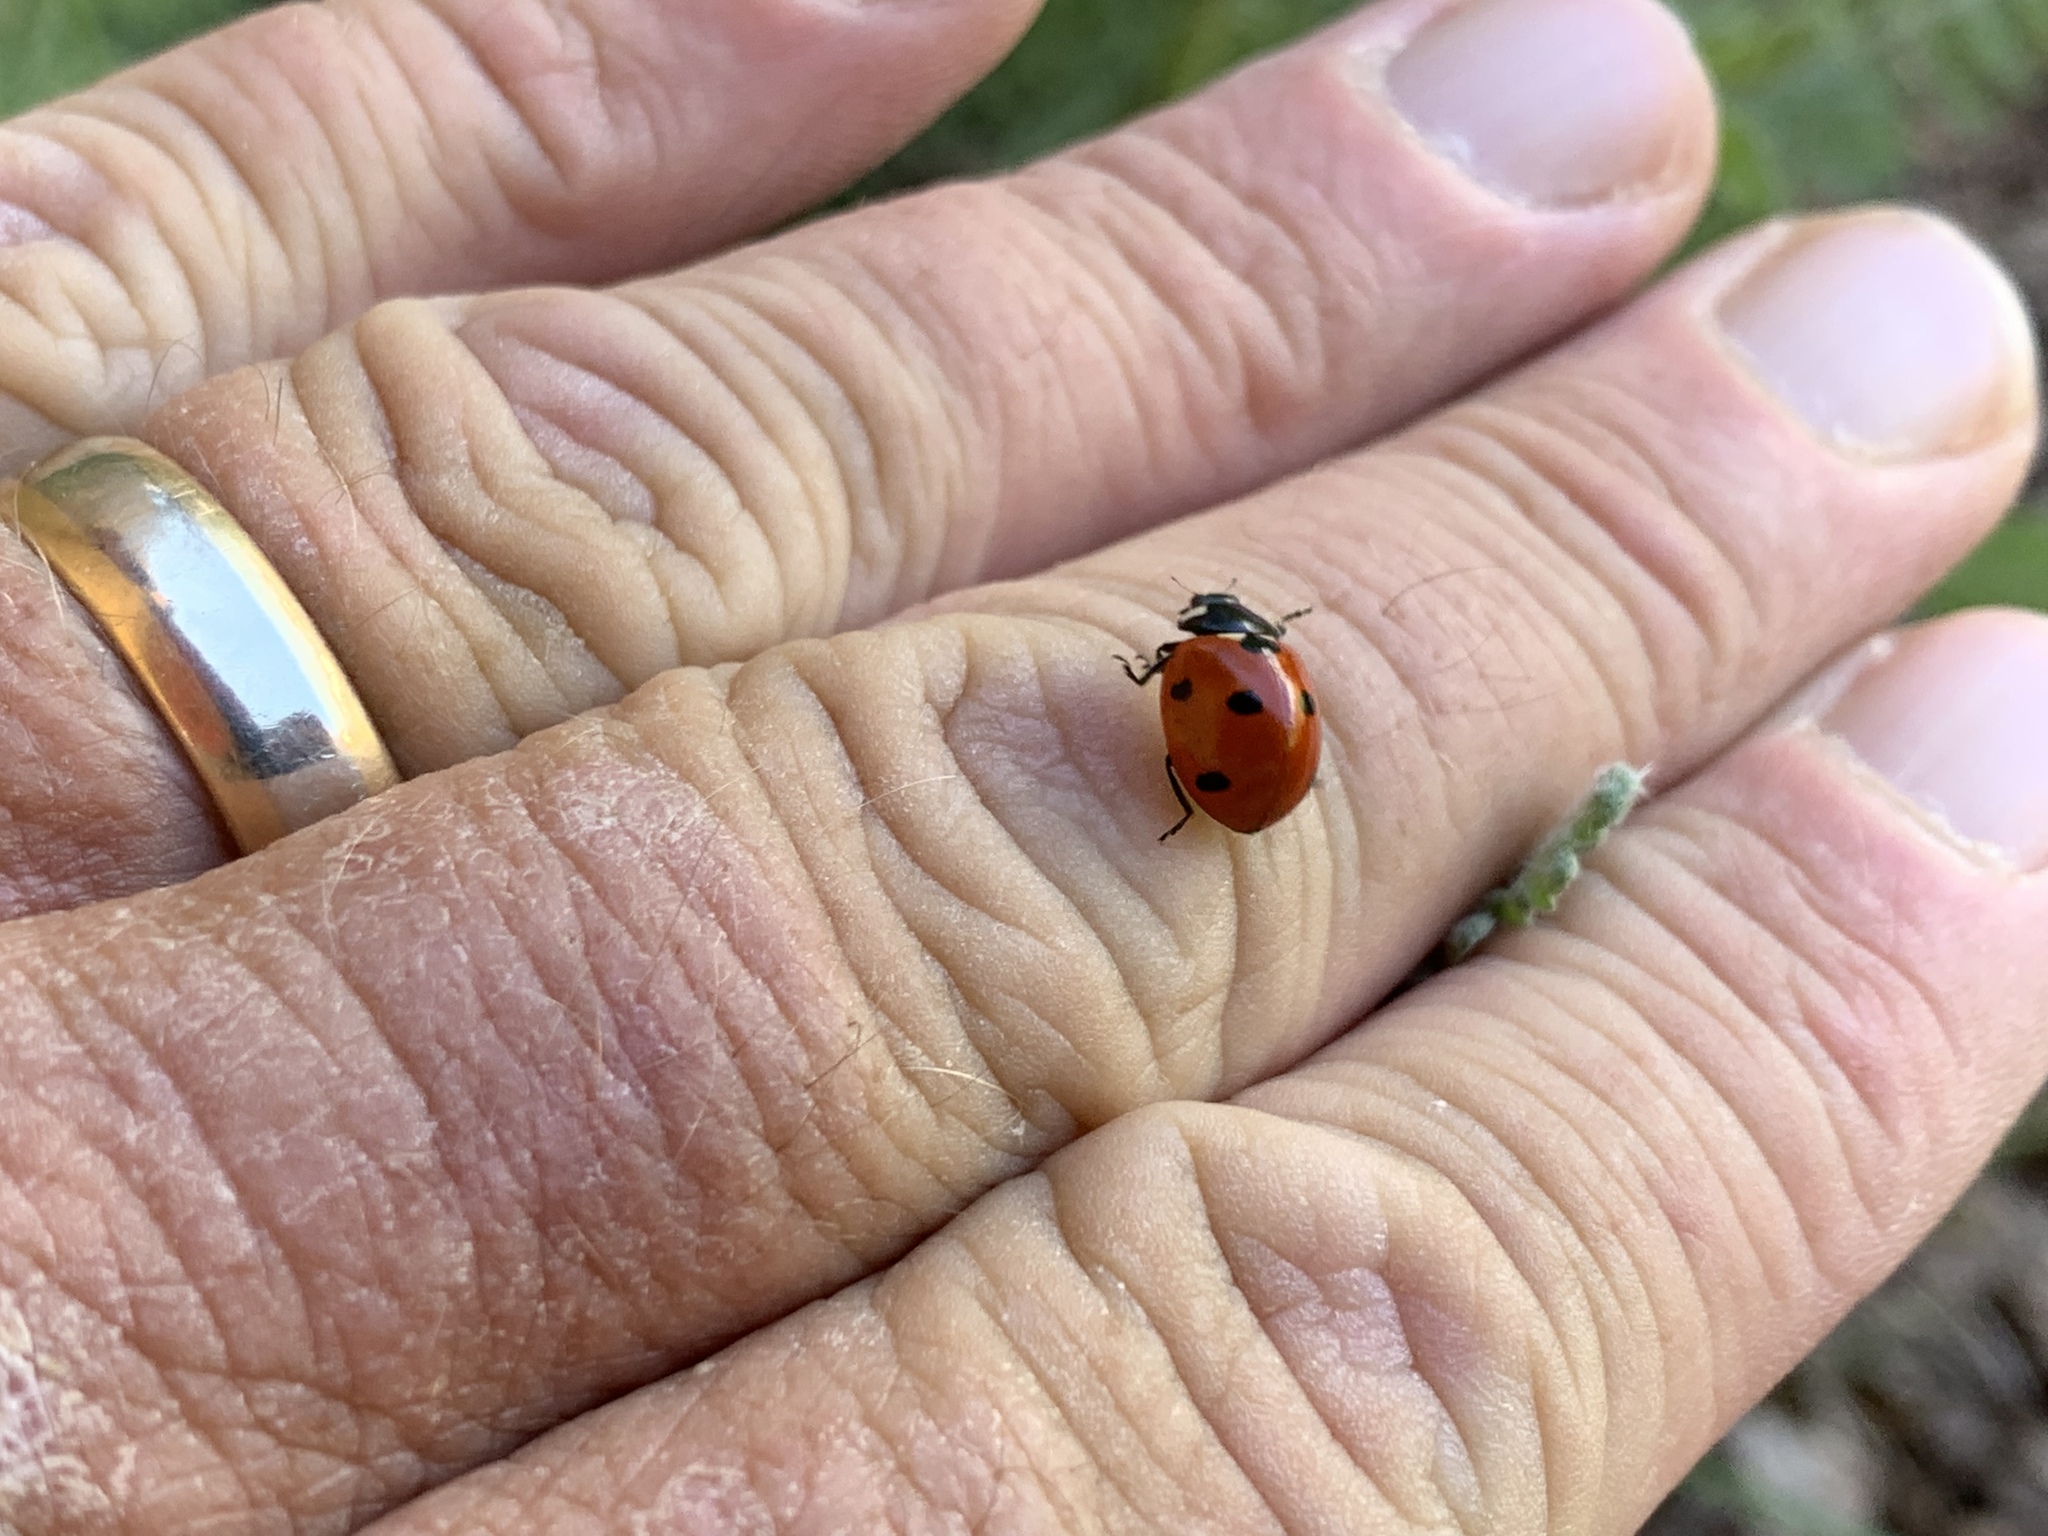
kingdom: Animalia
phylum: Arthropoda
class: Insecta
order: Coleoptera
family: Coccinellidae
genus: Coccinella
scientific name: Coccinella septempunctata
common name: Sevenspotted lady beetle
